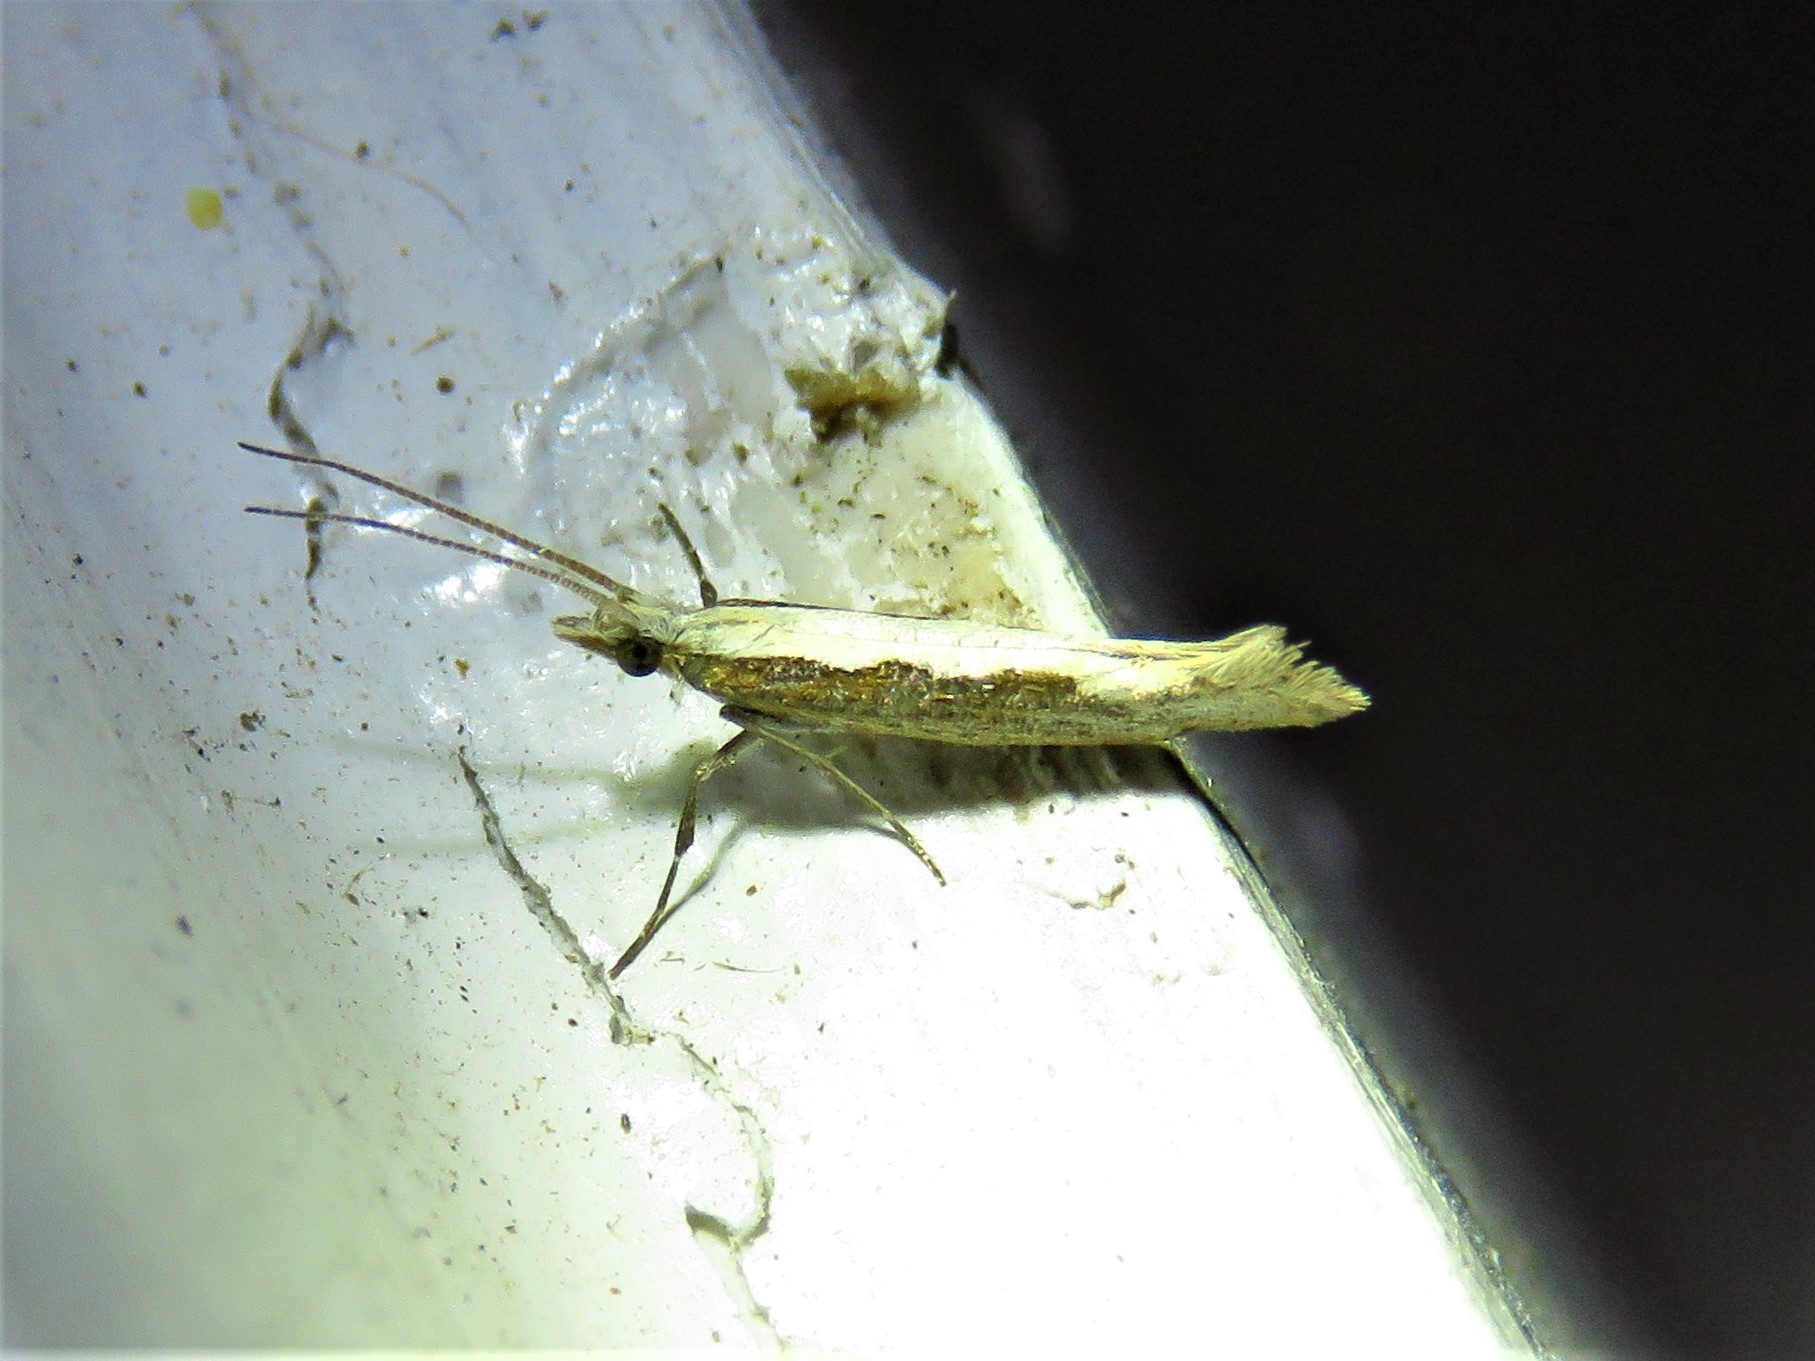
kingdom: Animalia
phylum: Arthropoda
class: Insecta
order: Lepidoptera
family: Plutellidae
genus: Plutella
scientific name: Plutella xylostella
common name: Diamond-back moth
